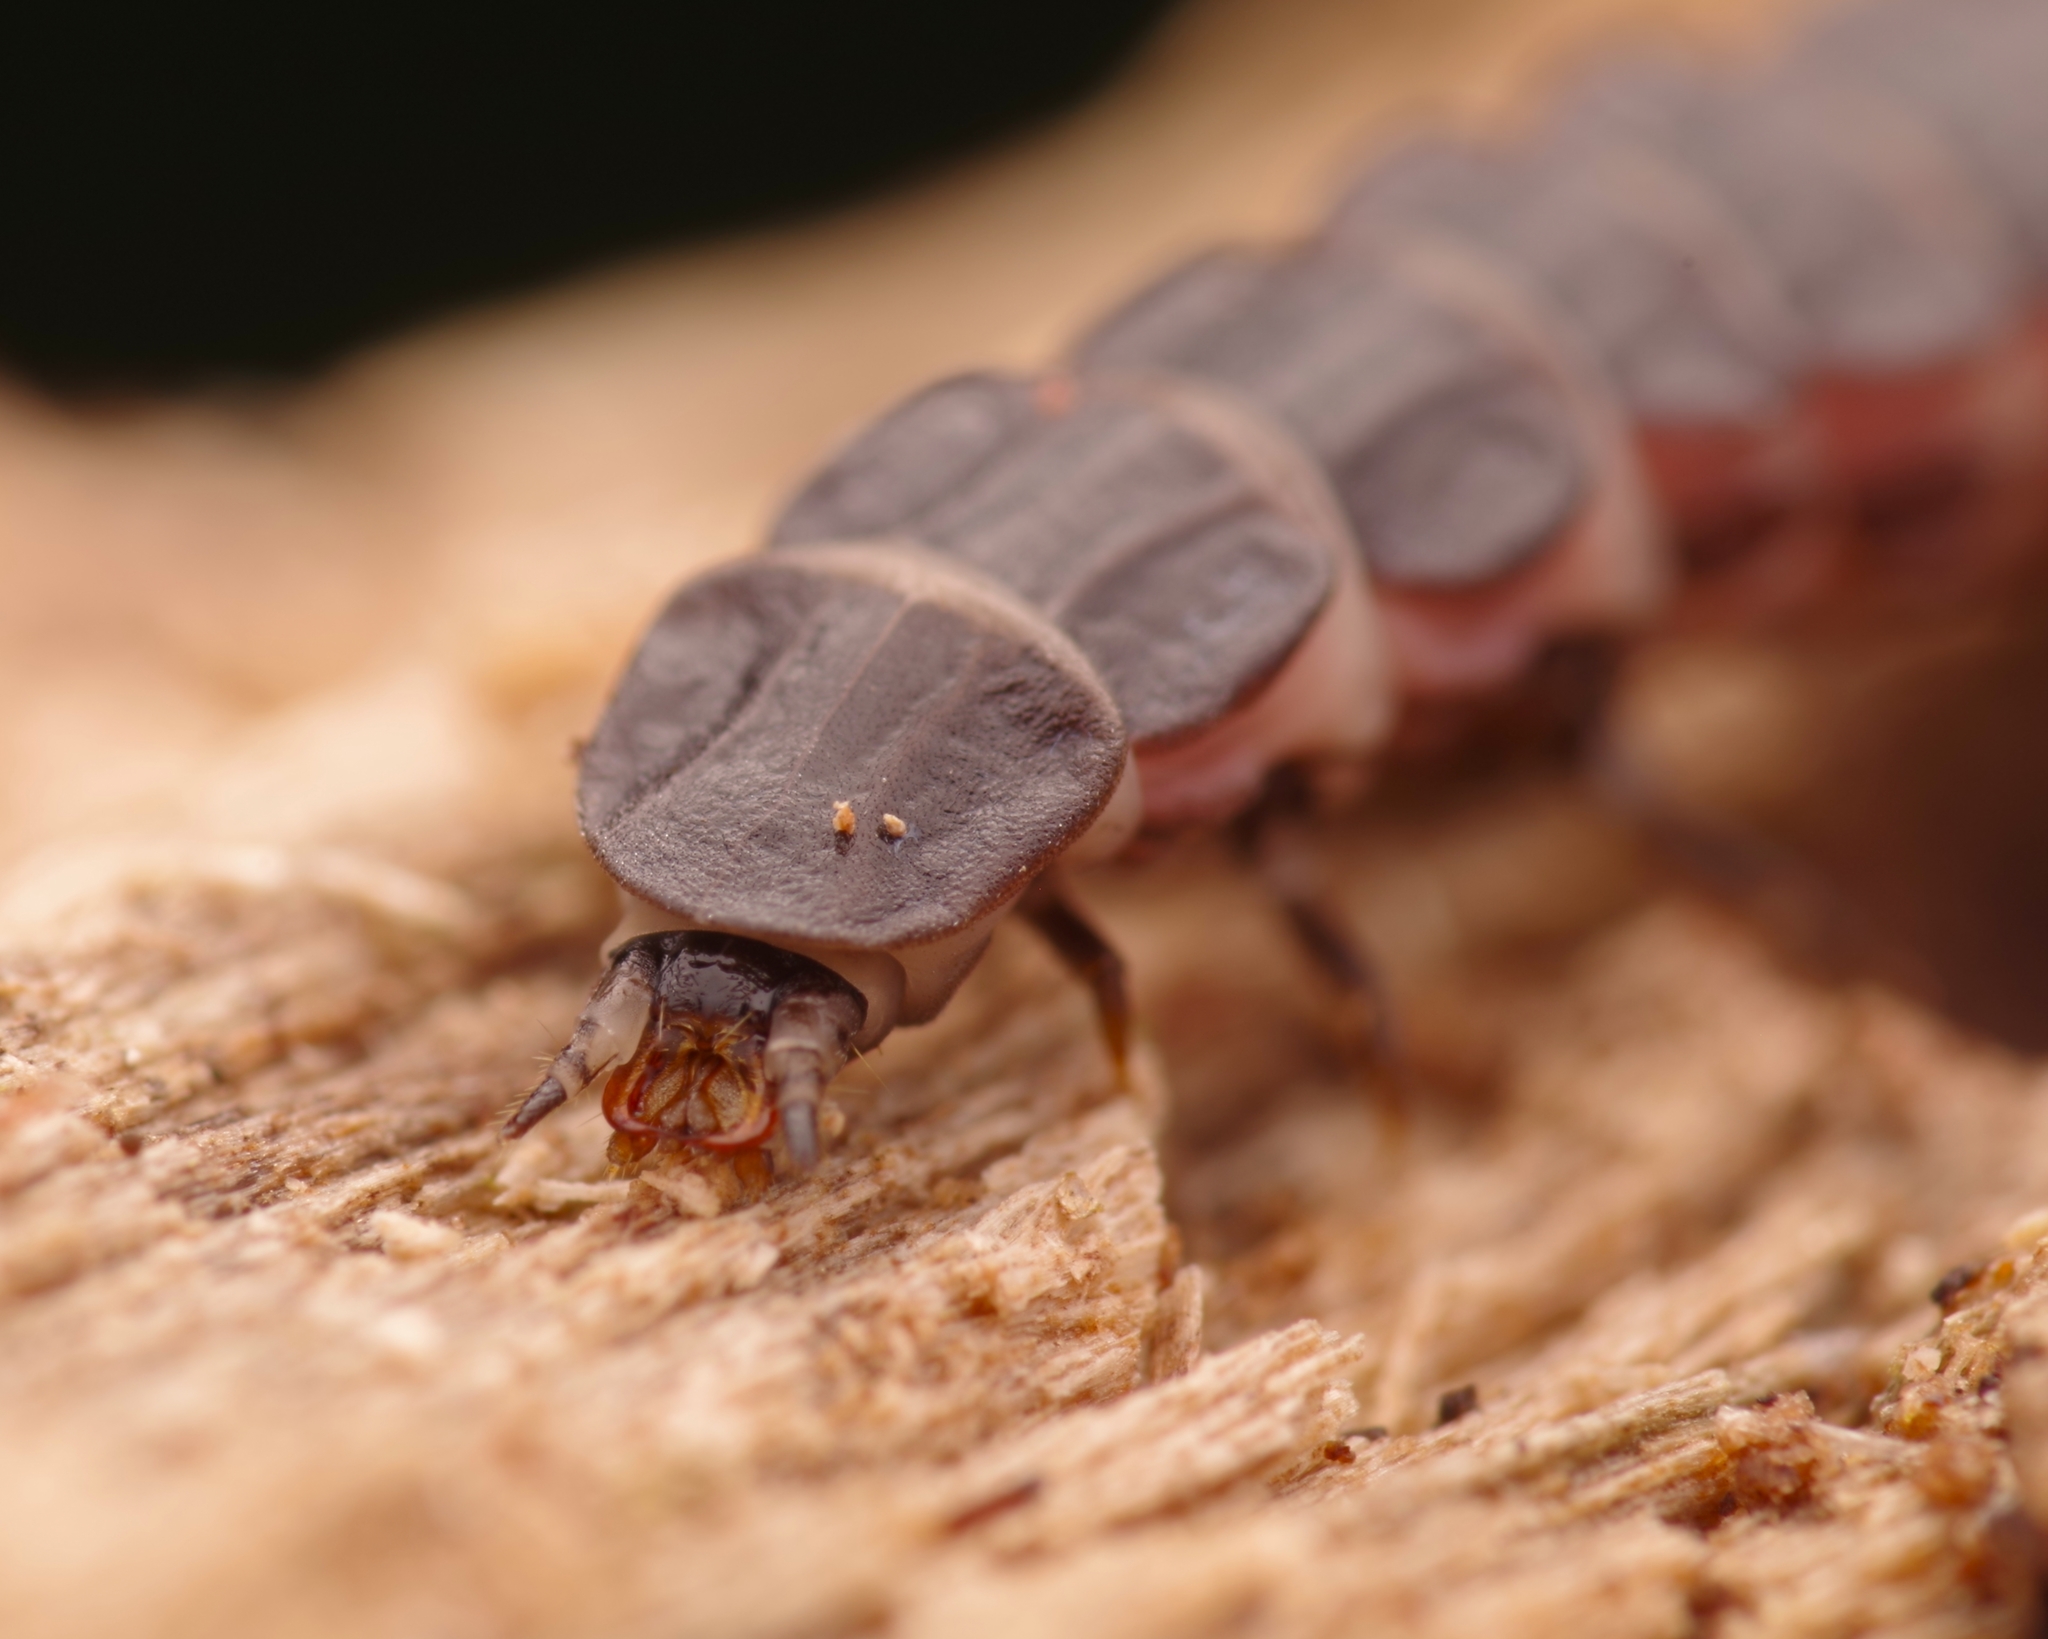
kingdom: Animalia
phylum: Arthropoda
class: Insecta
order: Coleoptera
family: Lampyridae
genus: Phosphaenus
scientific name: Phosphaenus hemipterus
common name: Short-winged firefly
